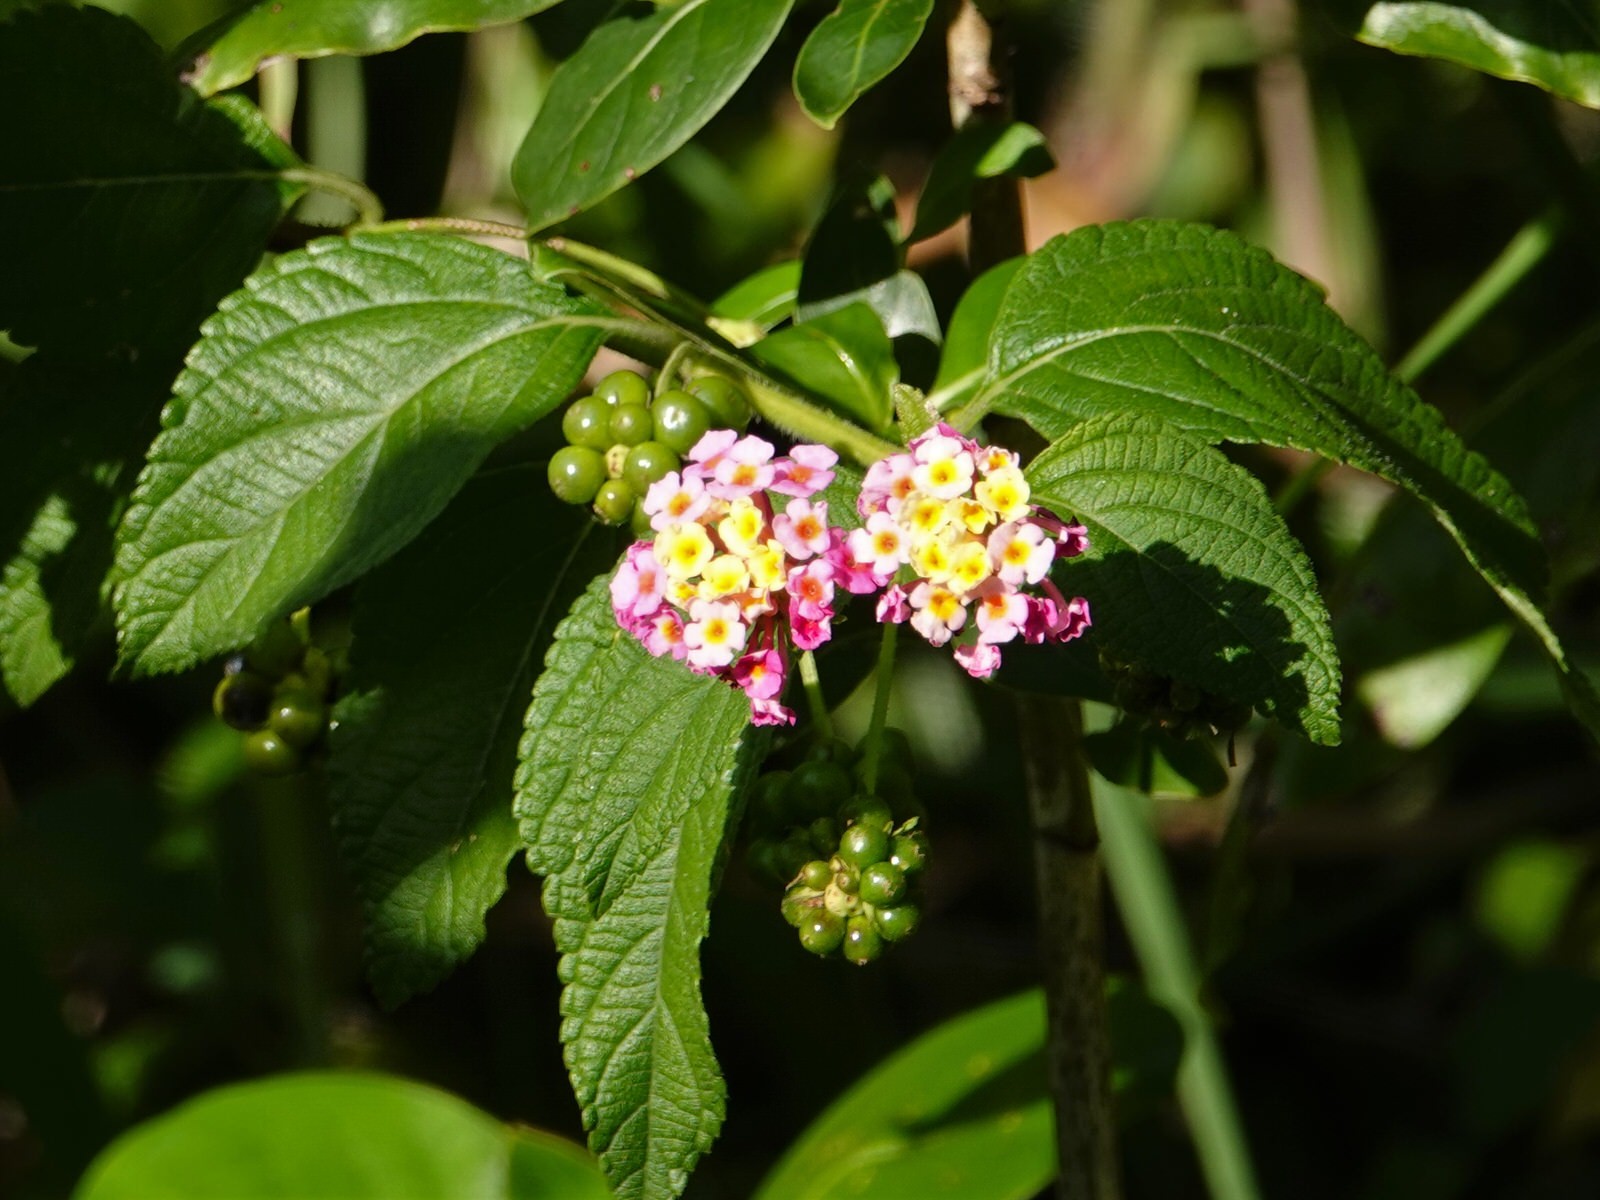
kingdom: Plantae
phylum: Tracheophyta
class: Magnoliopsida
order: Lamiales
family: Verbenaceae
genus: Lantana
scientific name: Lantana camara
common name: Lantana
